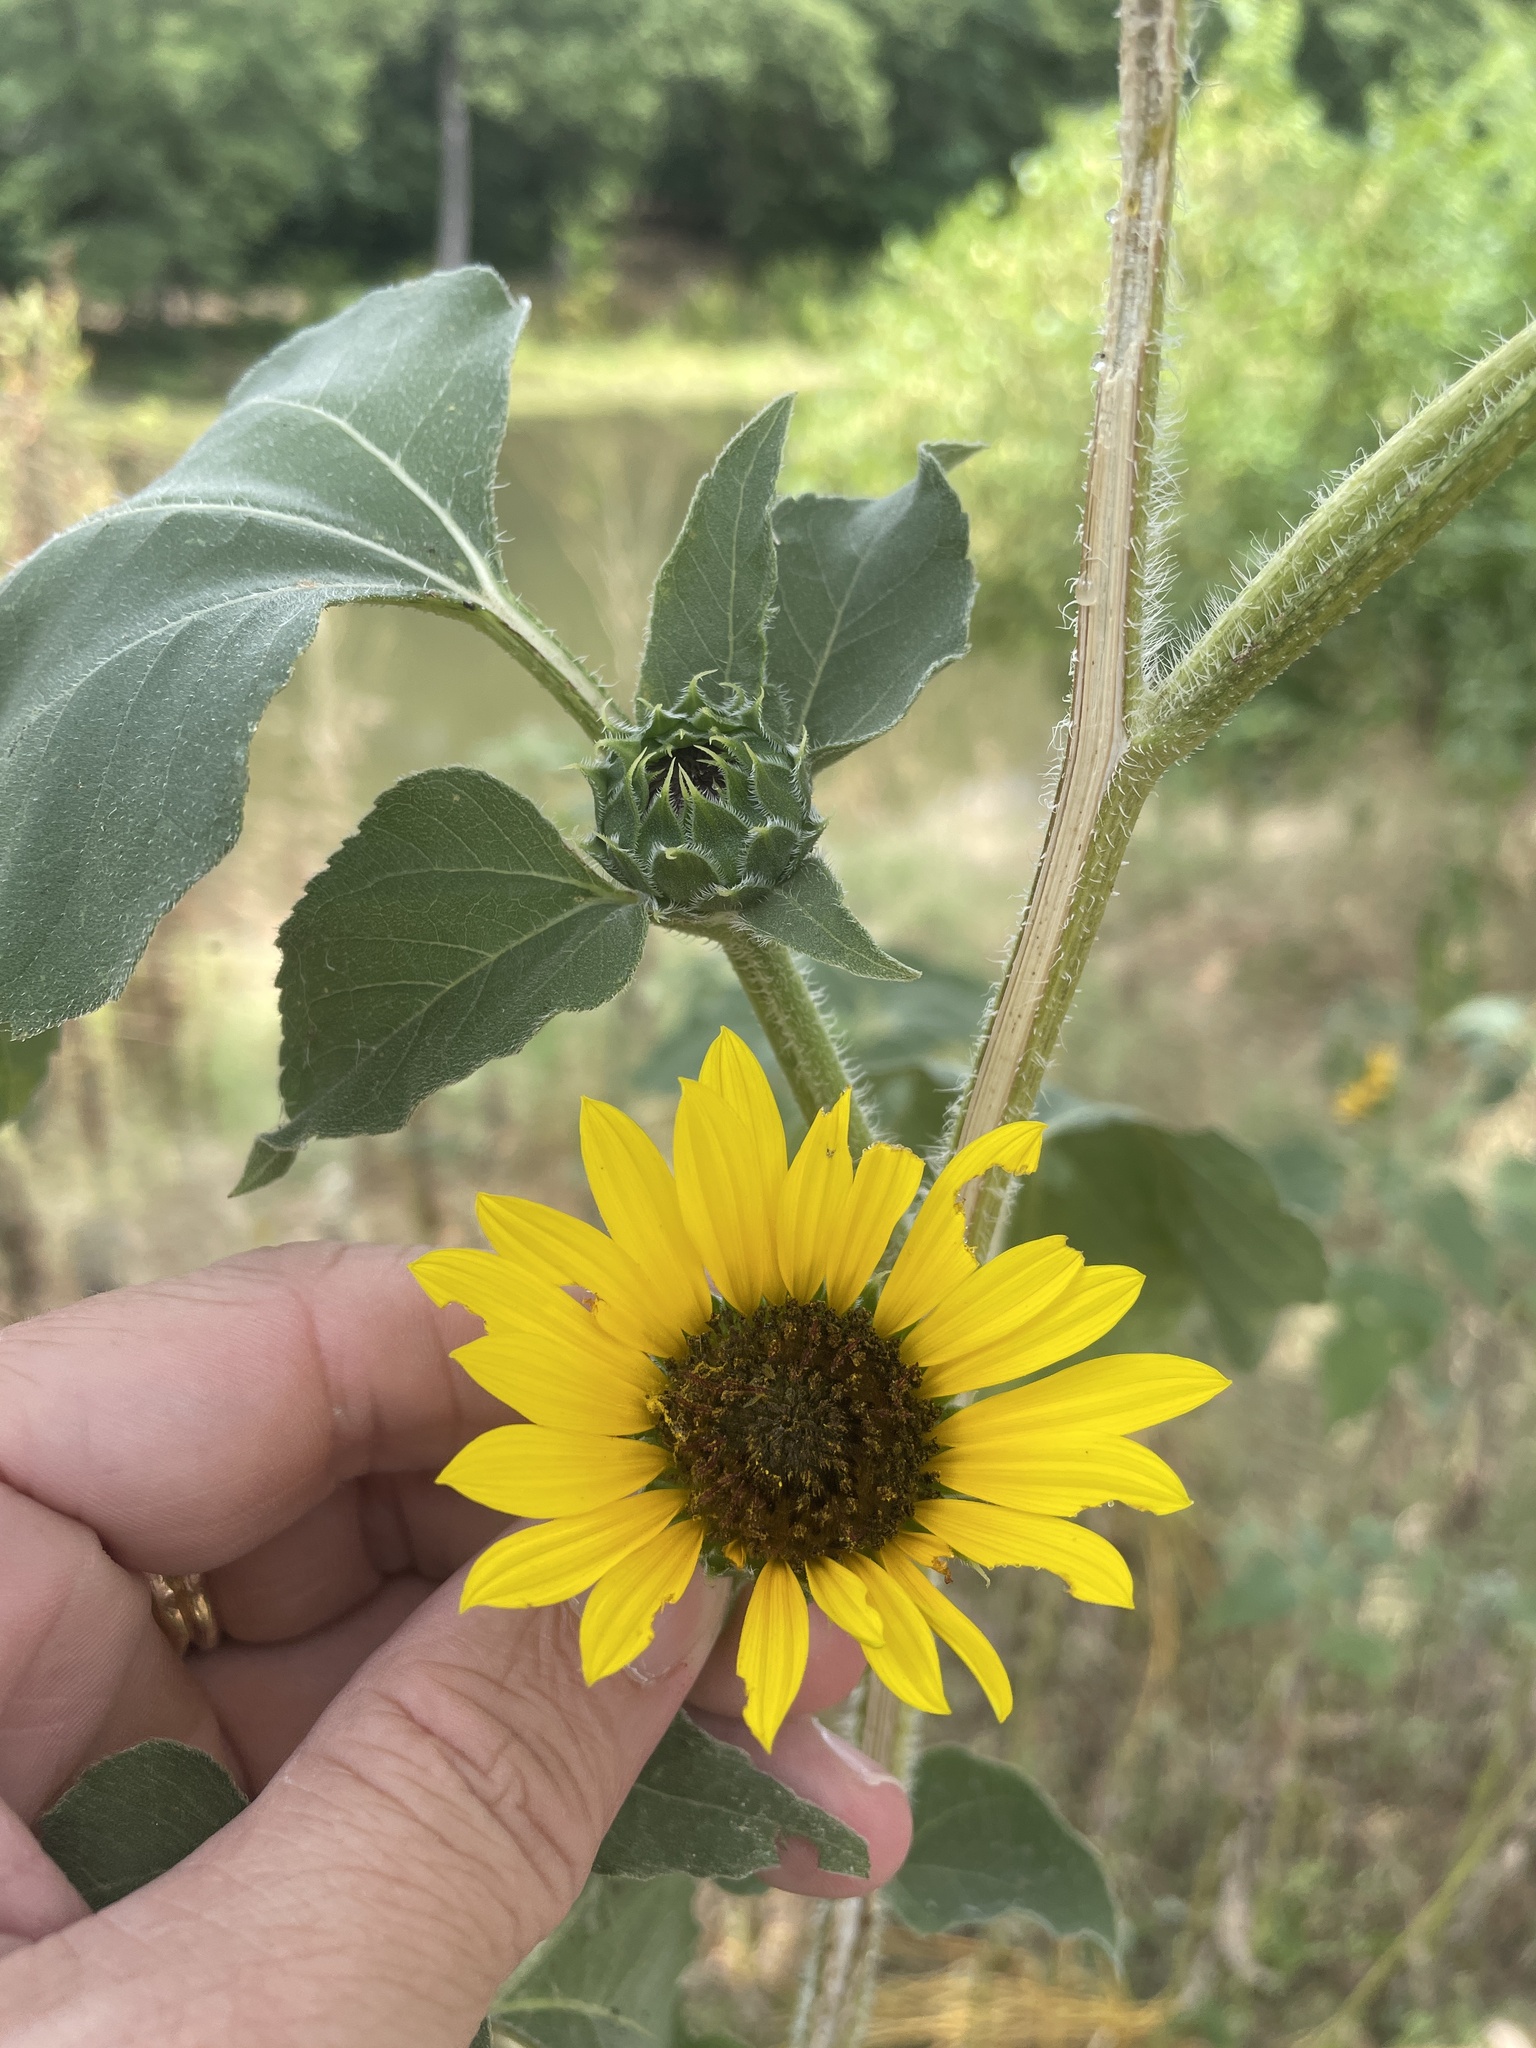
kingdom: Plantae
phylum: Tracheophyta
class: Magnoliopsida
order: Asterales
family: Asteraceae
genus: Helianthus
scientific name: Helianthus annuus
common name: Sunflower
